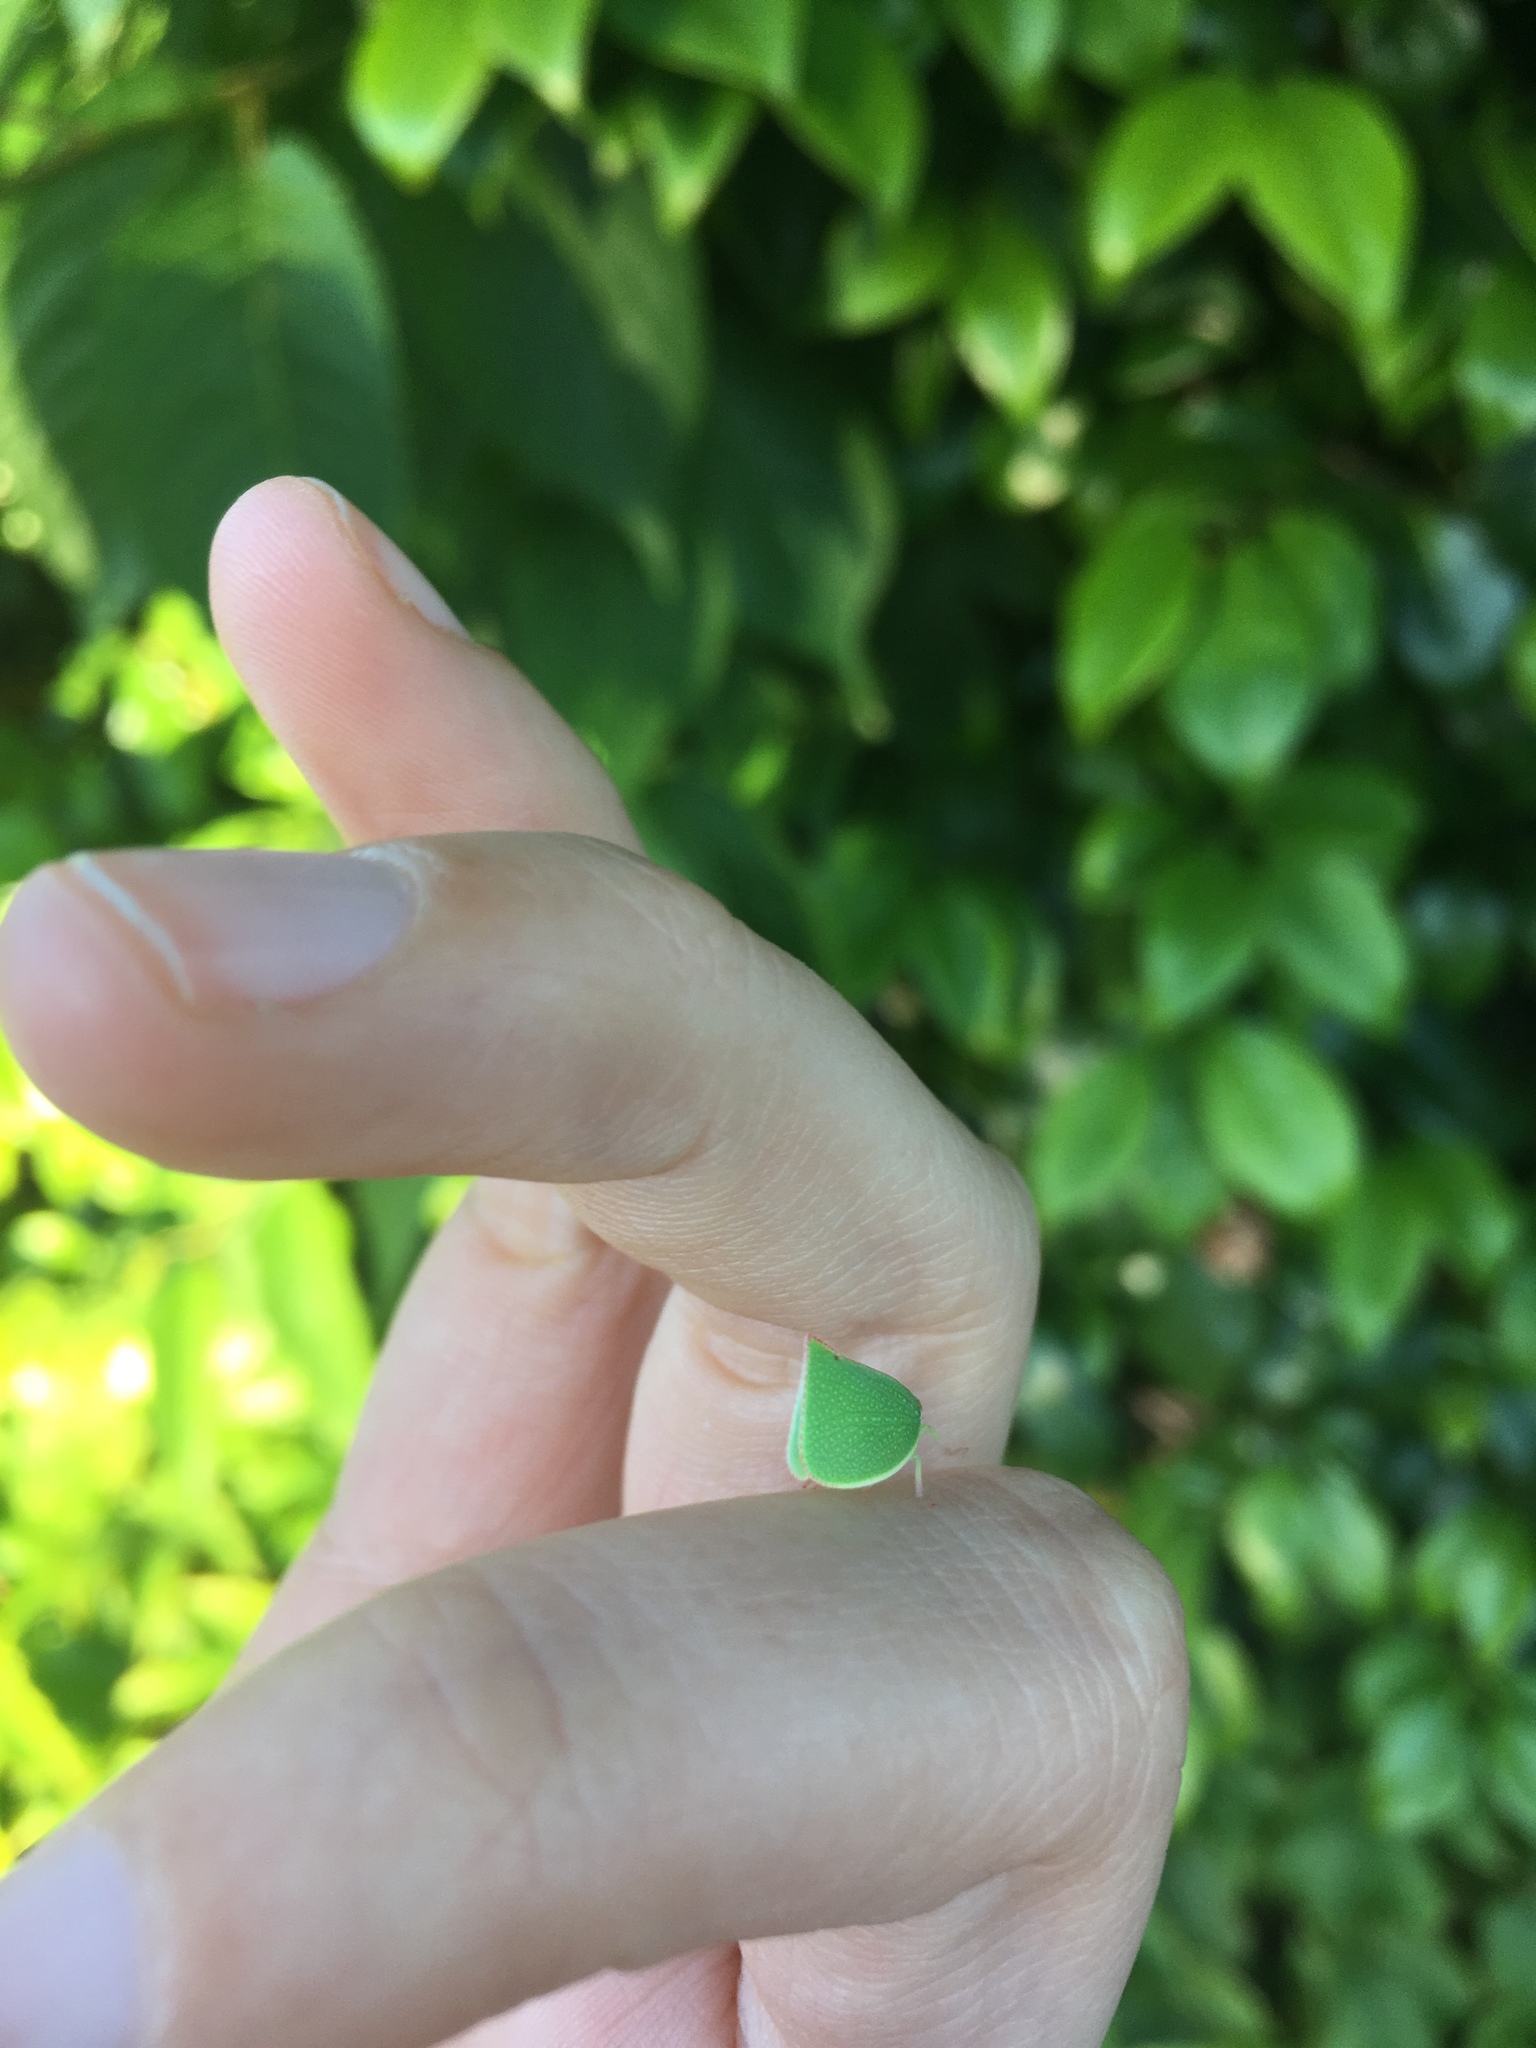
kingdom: Animalia
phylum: Arthropoda
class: Insecta
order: Hemiptera
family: Flatidae
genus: Siphanta
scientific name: Siphanta acuta
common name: Torpedo bug
